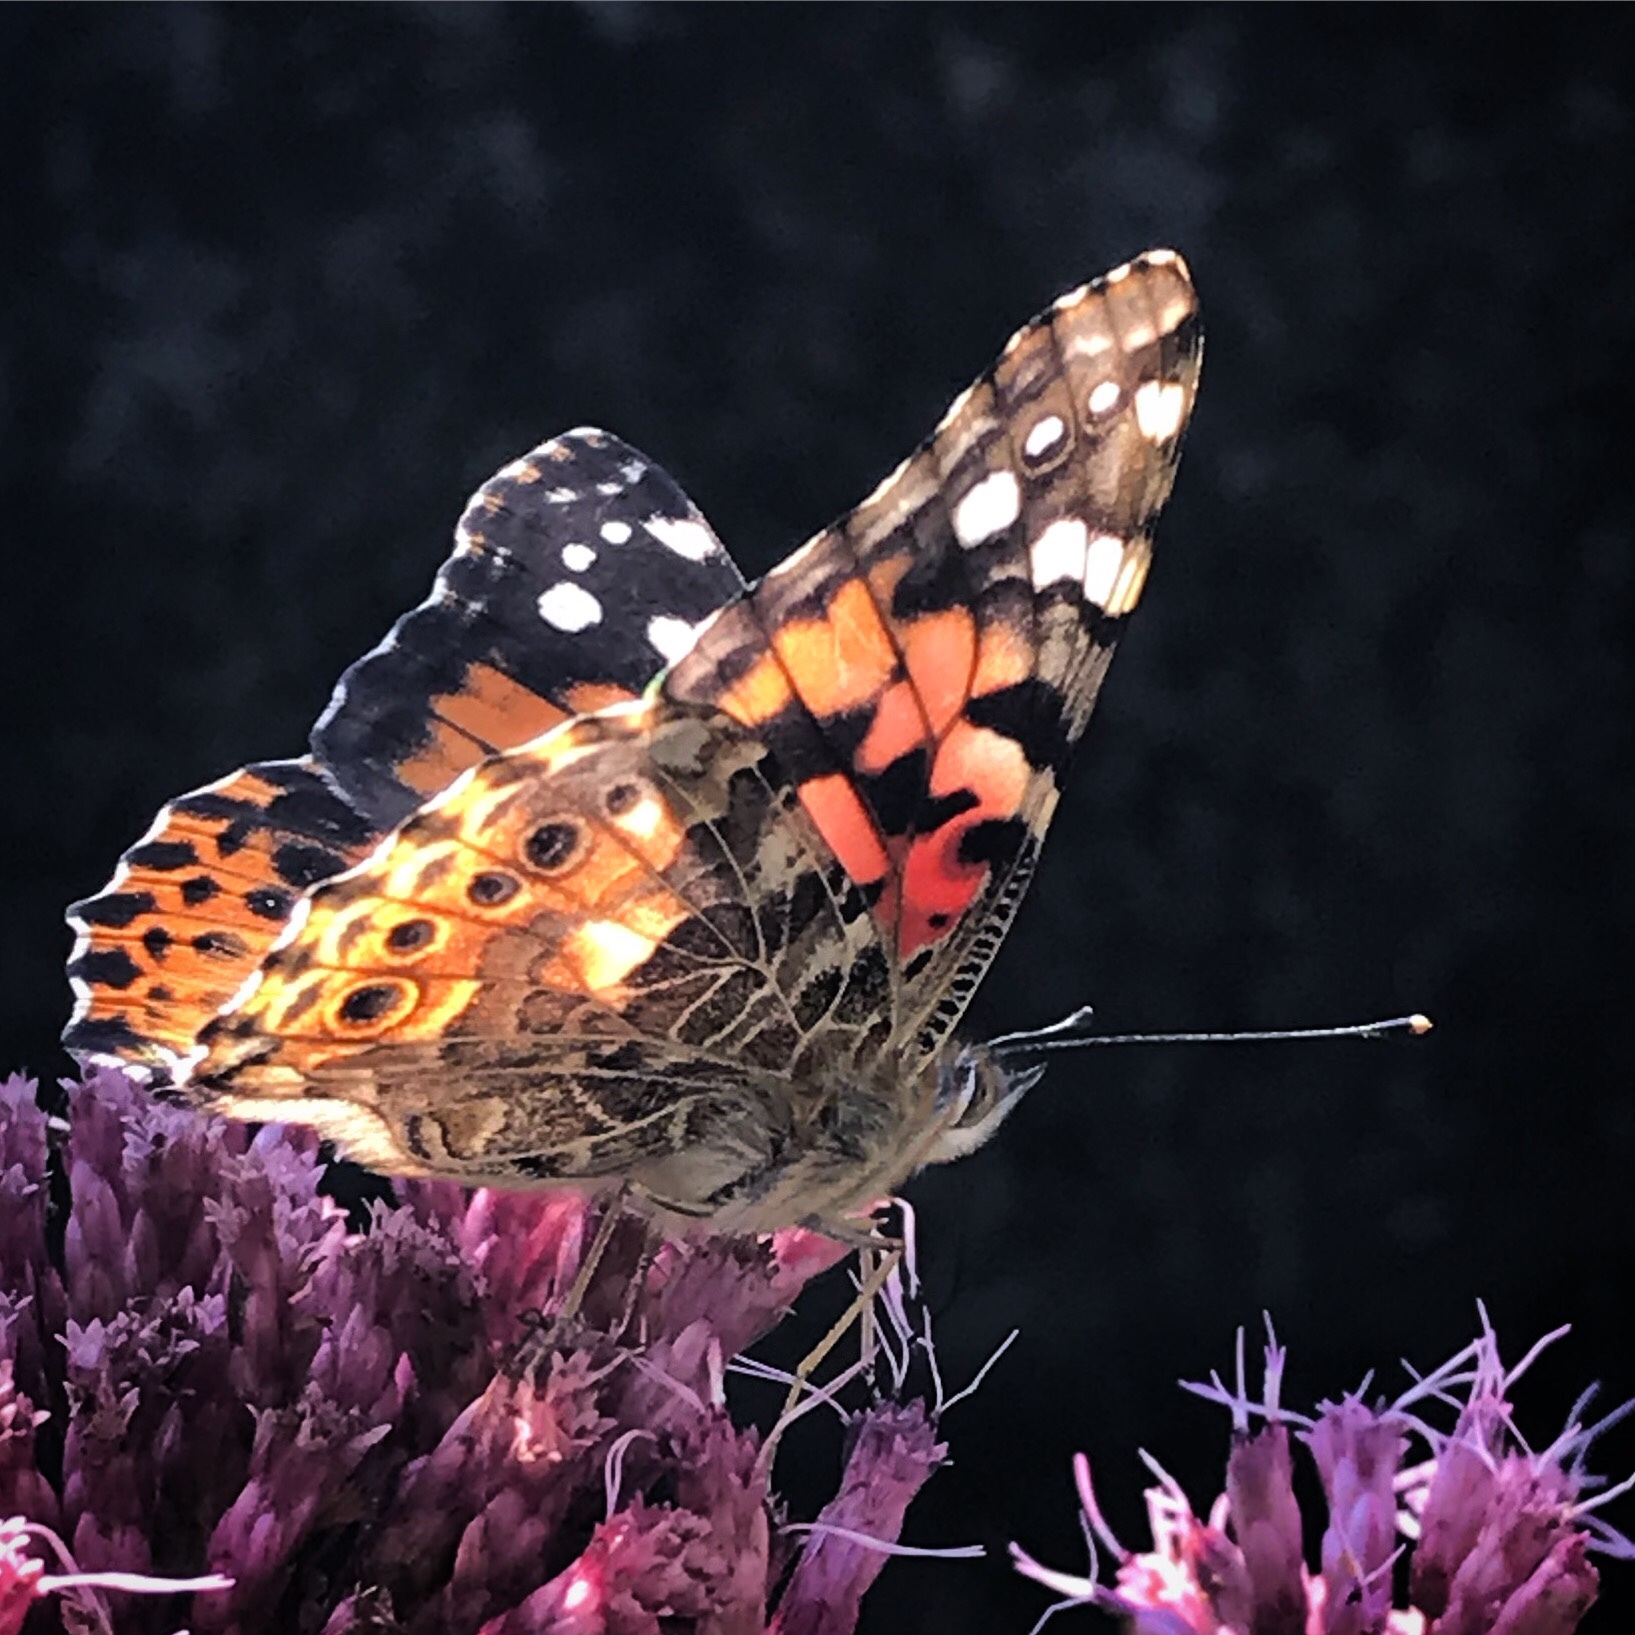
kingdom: Animalia
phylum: Arthropoda
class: Insecta
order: Lepidoptera
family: Nymphalidae
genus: Vanessa
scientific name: Vanessa cardui
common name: Painted lady
